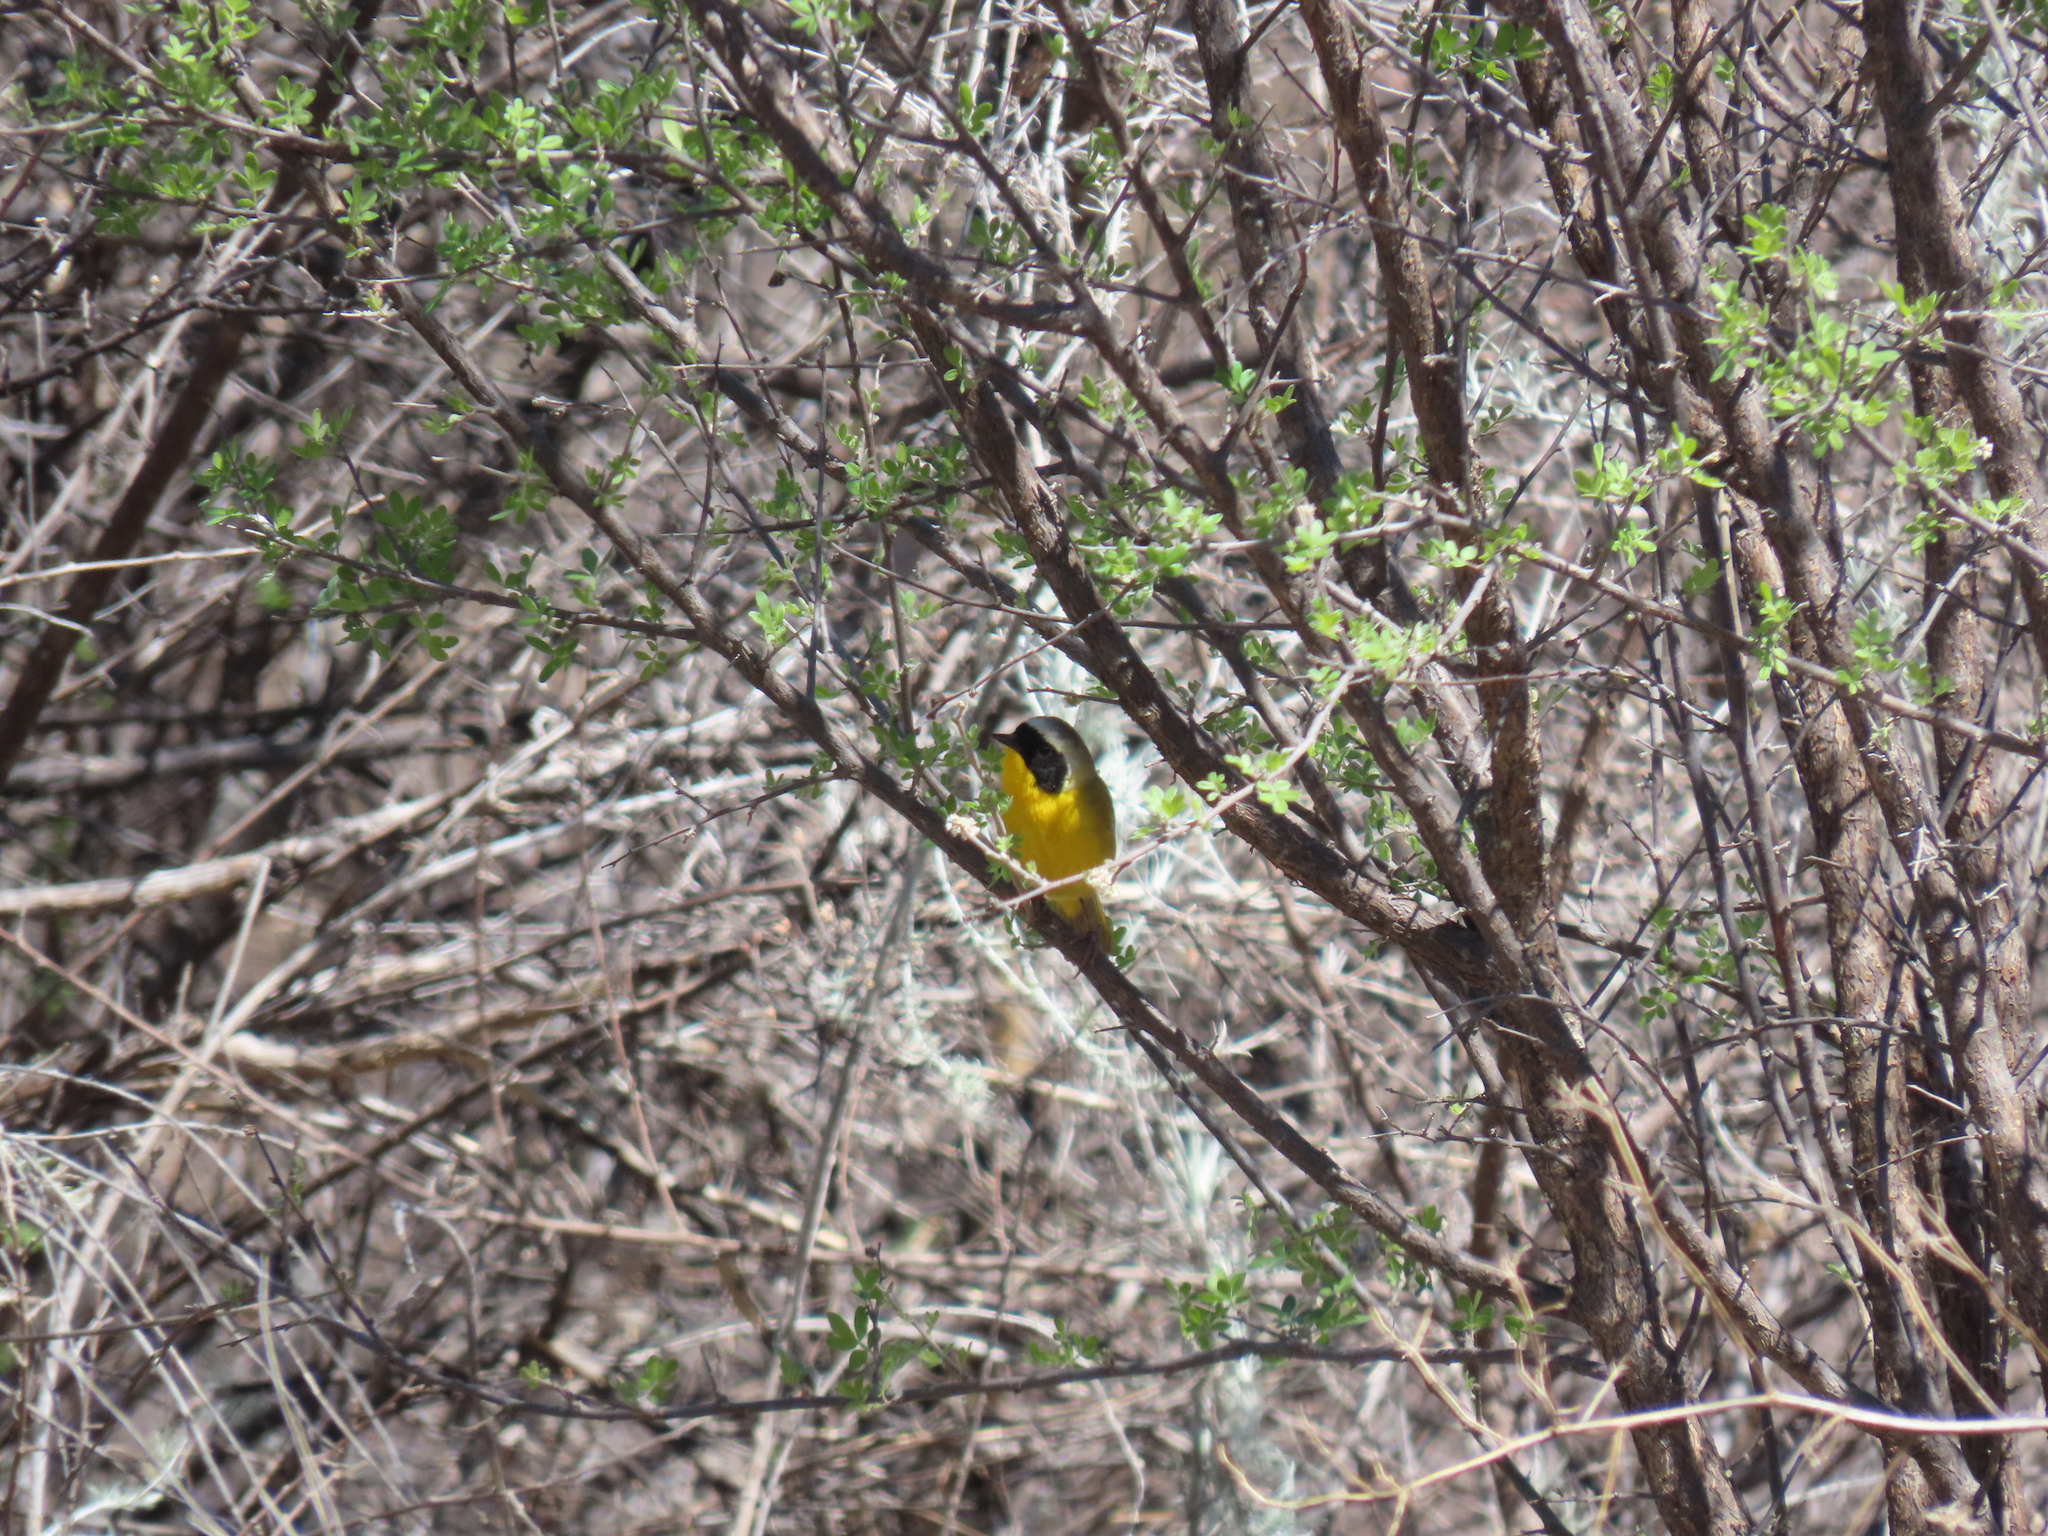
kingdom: Animalia
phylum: Chordata
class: Aves
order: Passeriformes
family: Parulidae
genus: Geothlypis
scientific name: Geothlypis trichas
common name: Common yellowthroat
